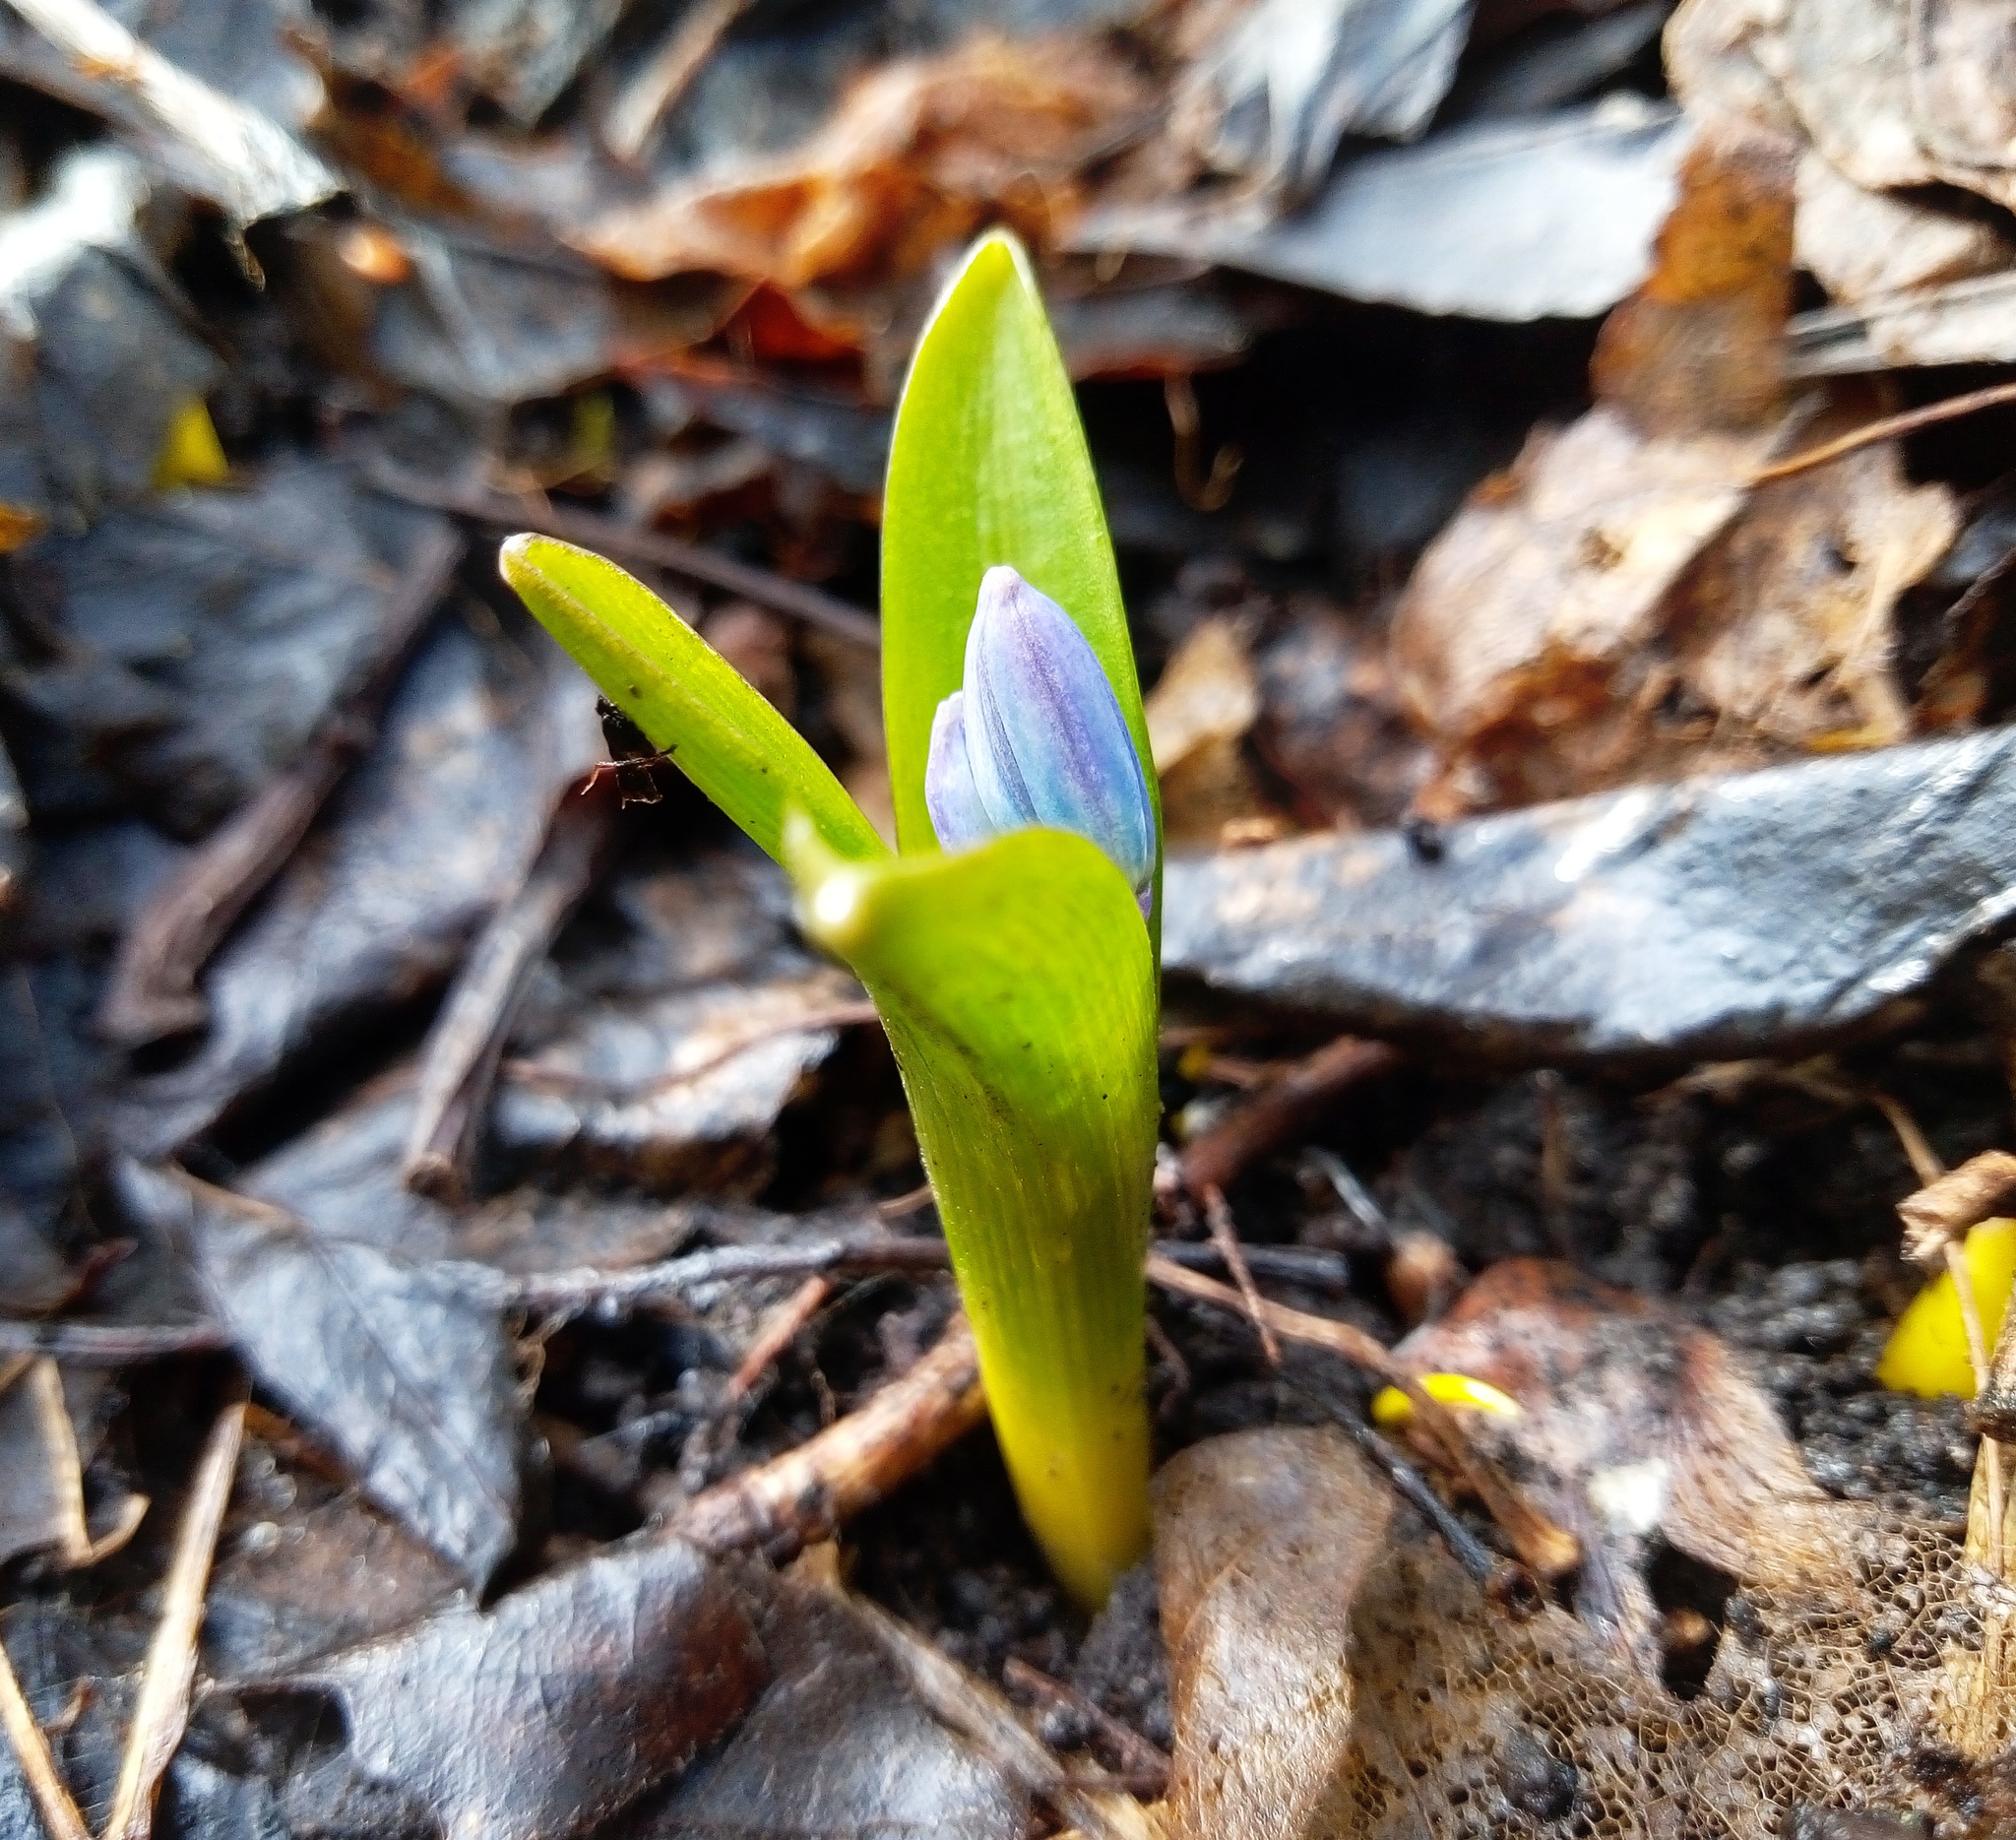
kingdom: Plantae
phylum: Tracheophyta
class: Liliopsida
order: Asparagales
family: Asparagaceae
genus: Scilla
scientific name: Scilla siberica
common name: Siberian squill
